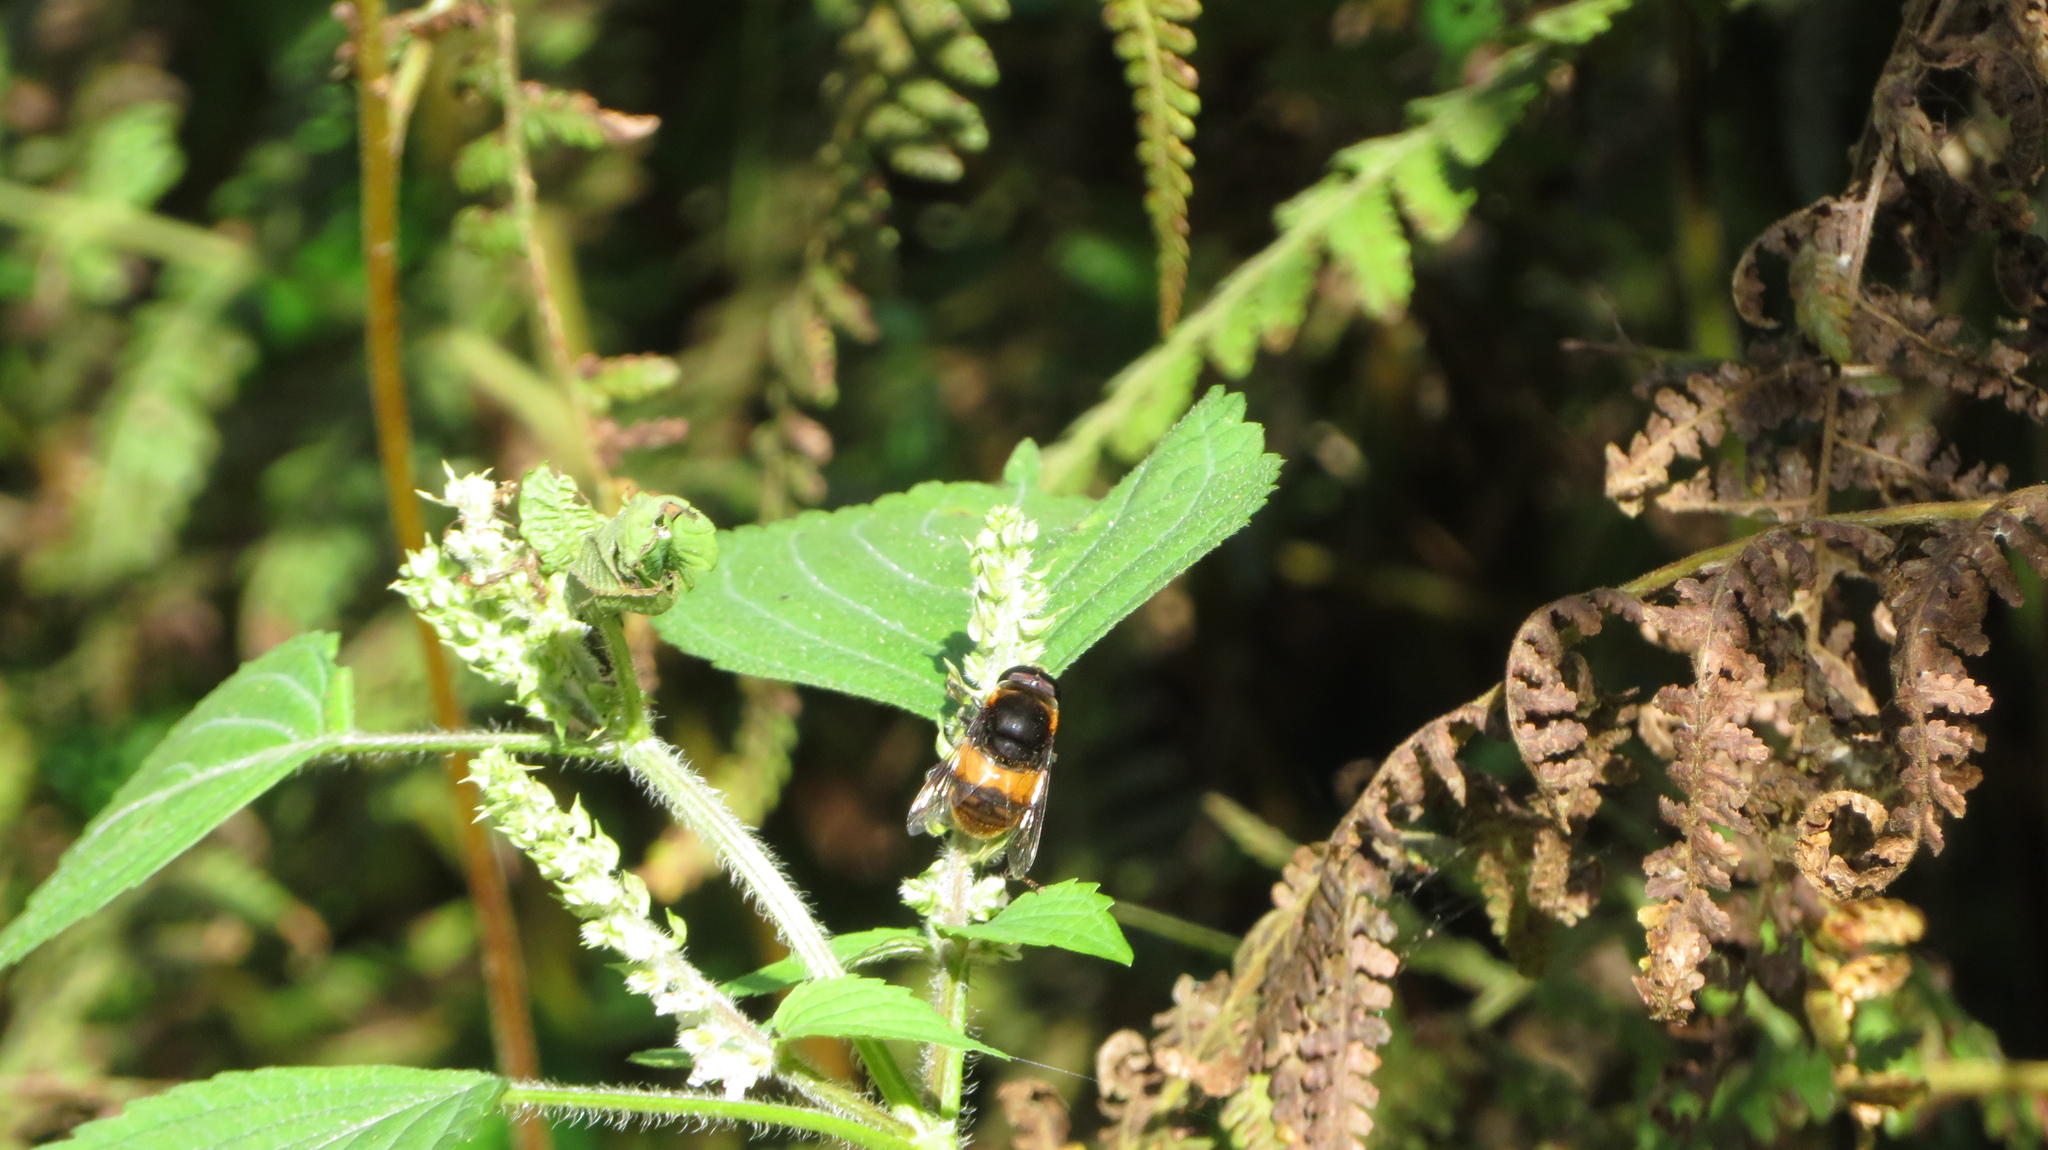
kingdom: Animalia
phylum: Arthropoda
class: Insecta
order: Diptera
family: Syrphidae
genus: Phytomia
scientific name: Phytomia zonata
